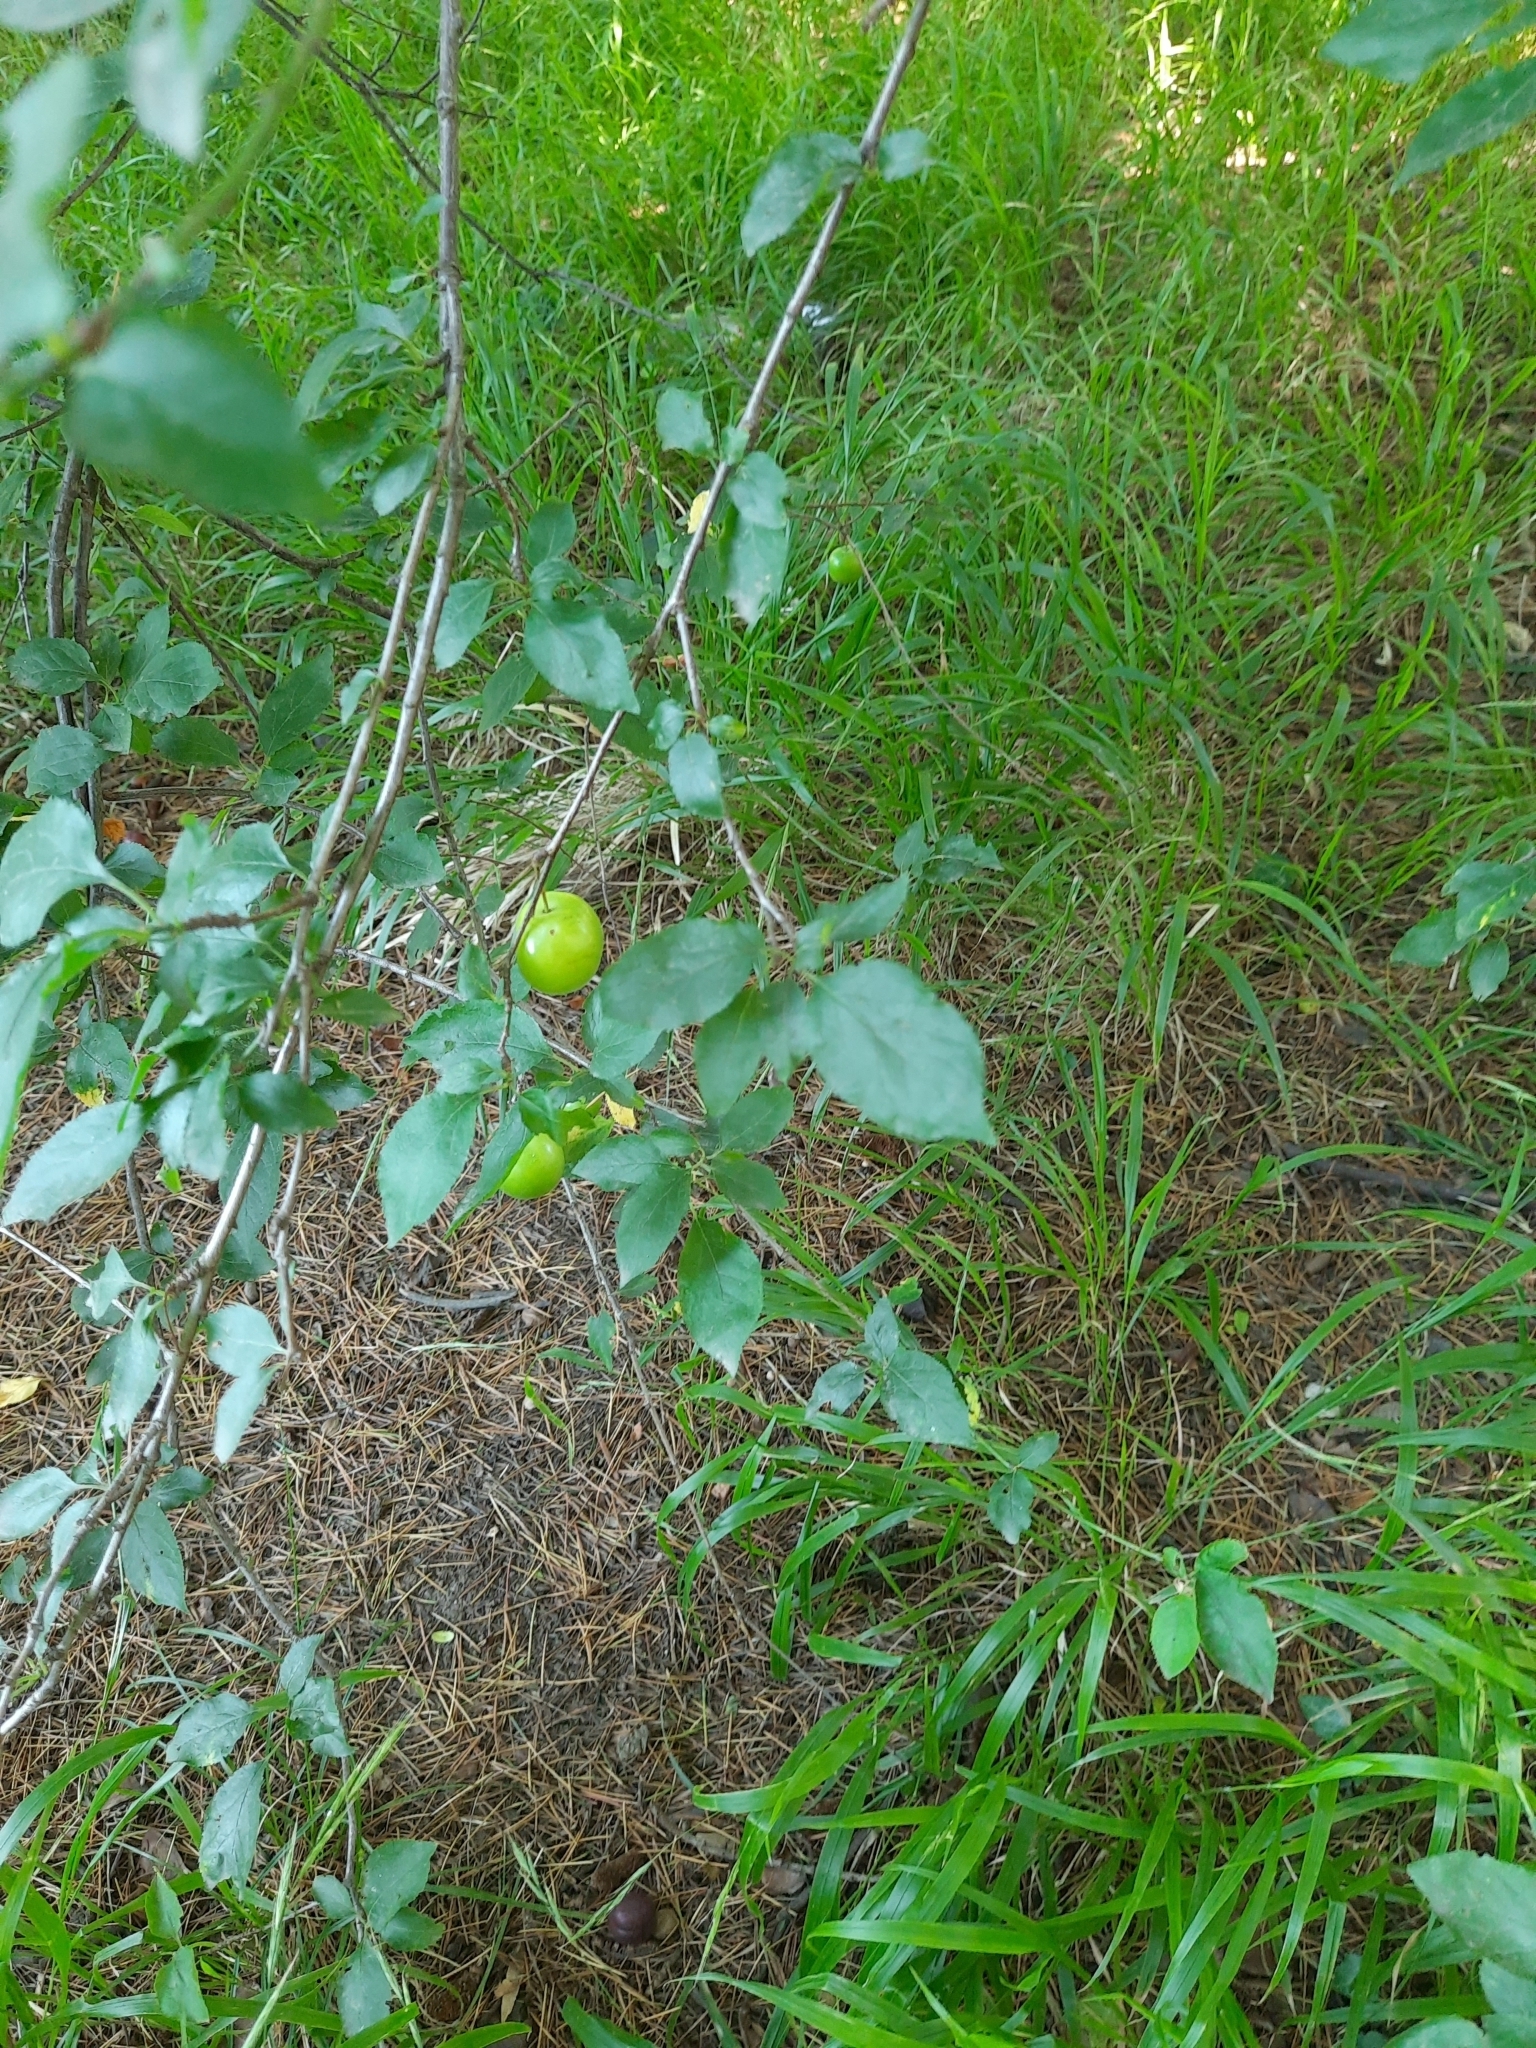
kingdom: Plantae
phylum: Tracheophyta
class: Magnoliopsida
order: Rosales
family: Rosaceae
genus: Prunus
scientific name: Prunus cerasifera
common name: Cherry plum
